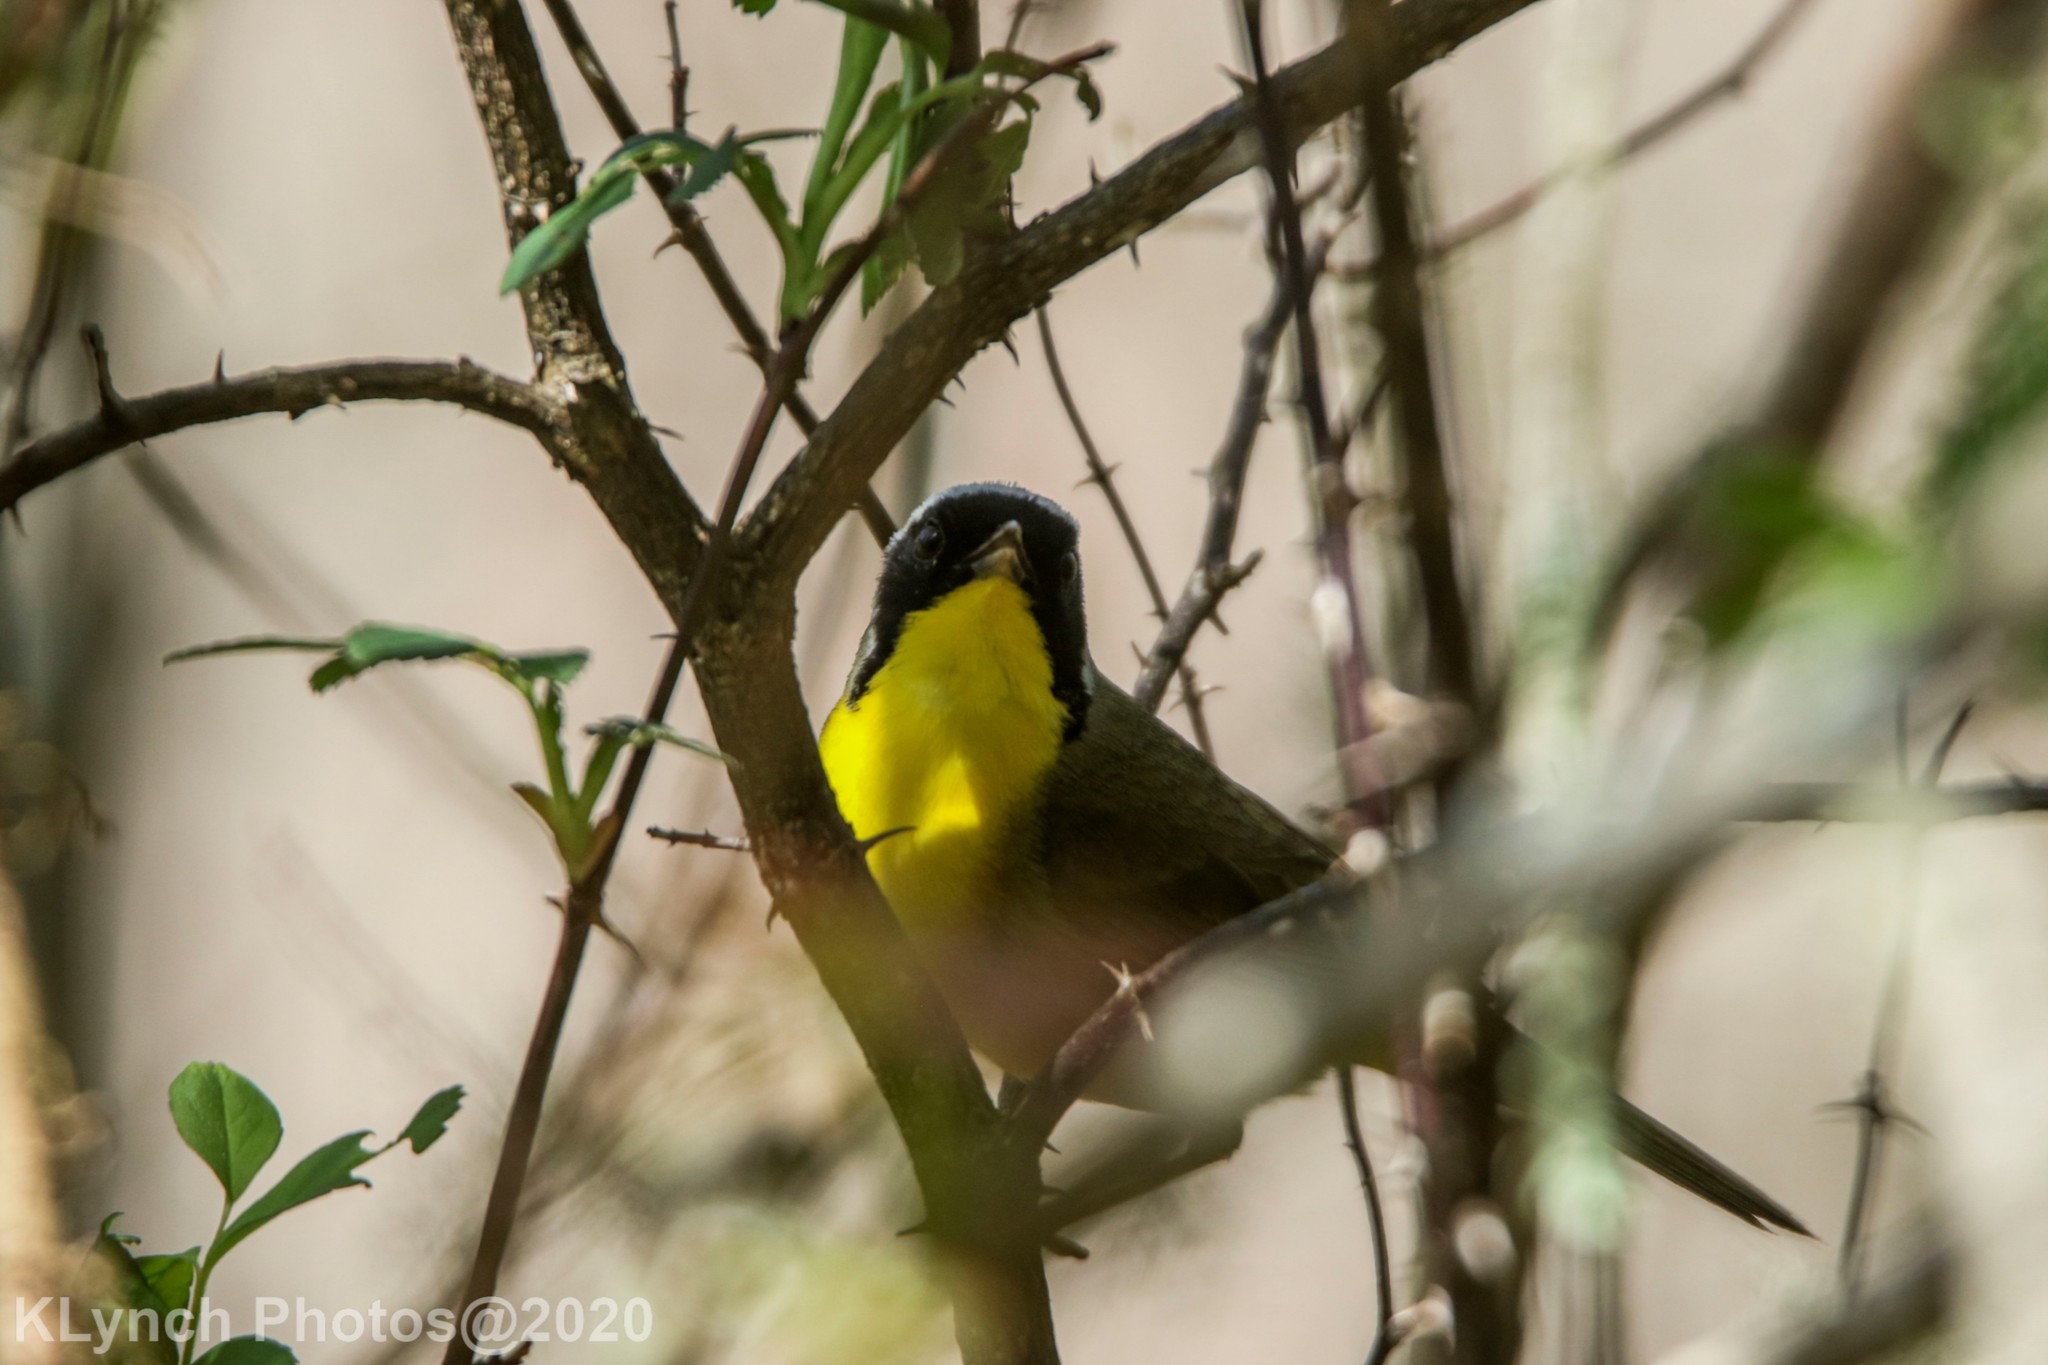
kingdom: Animalia
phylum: Chordata
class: Aves
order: Passeriformes
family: Parulidae
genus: Geothlypis
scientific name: Geothlypis trichas
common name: Common yellowthroat
